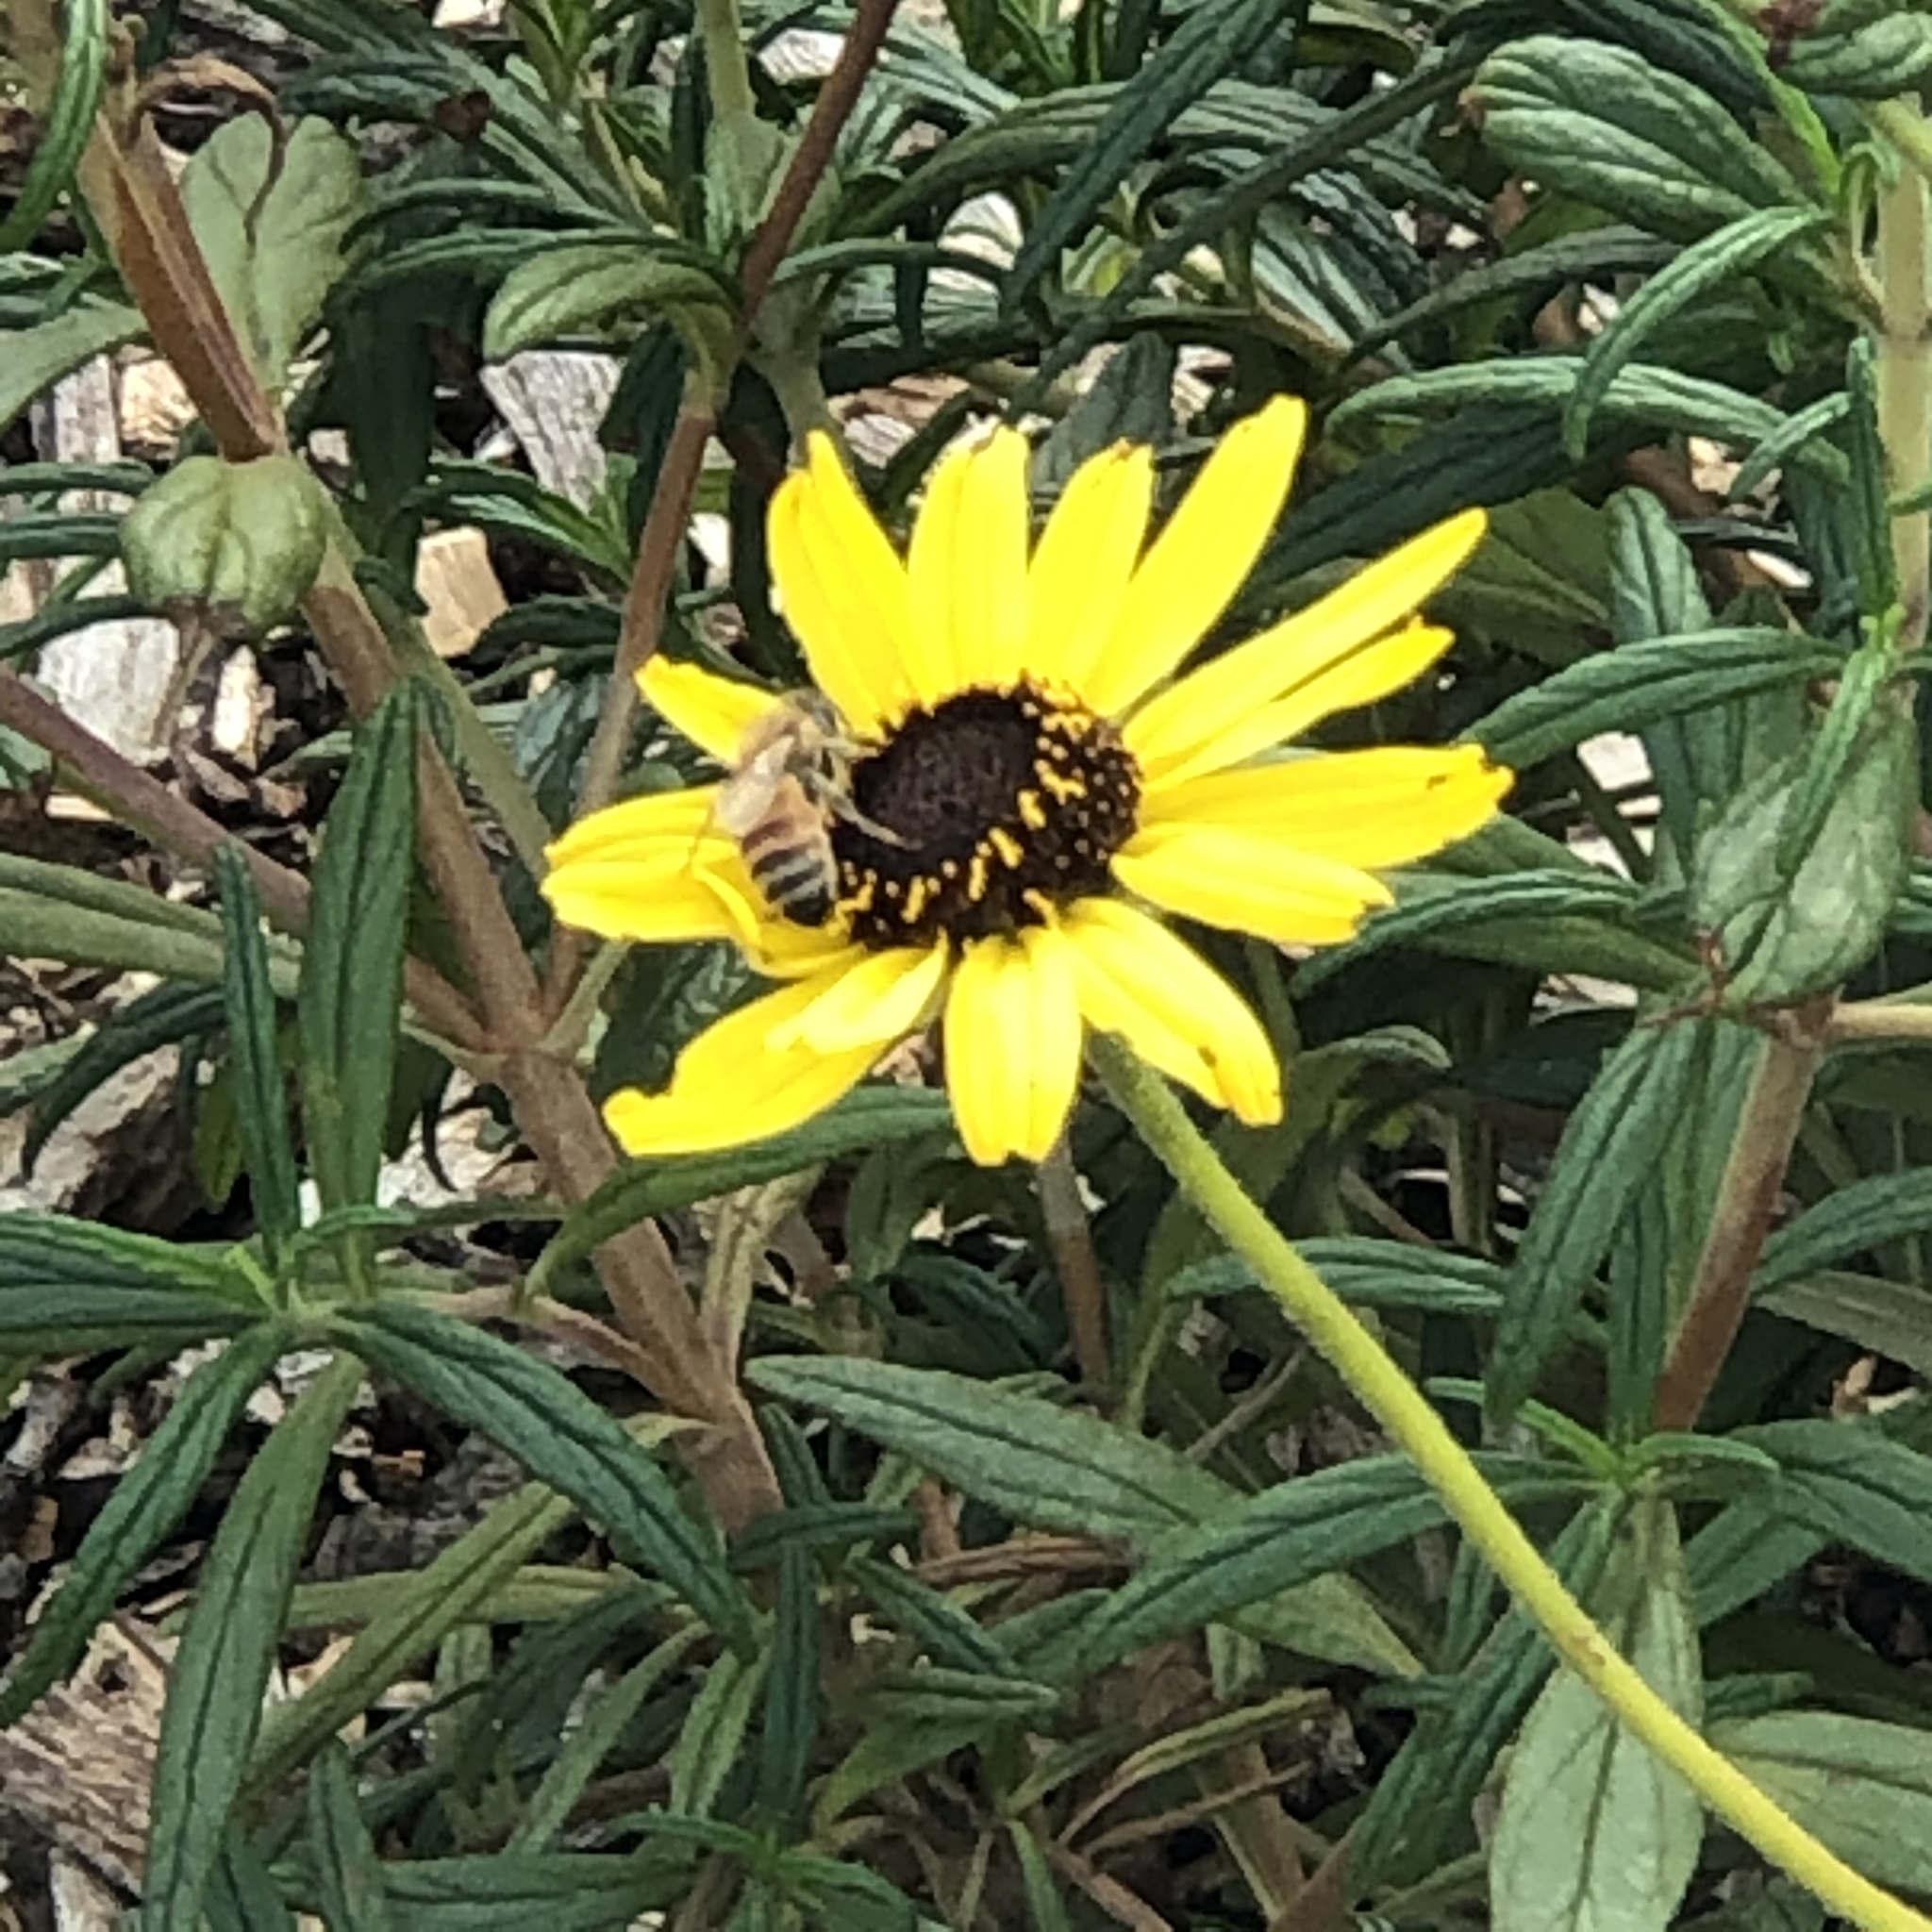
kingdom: Animalia
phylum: Arthropoda
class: Insecta
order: Hymenoptera
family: Apidae
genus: Apis
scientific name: Apis mellifera
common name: Honey bee
